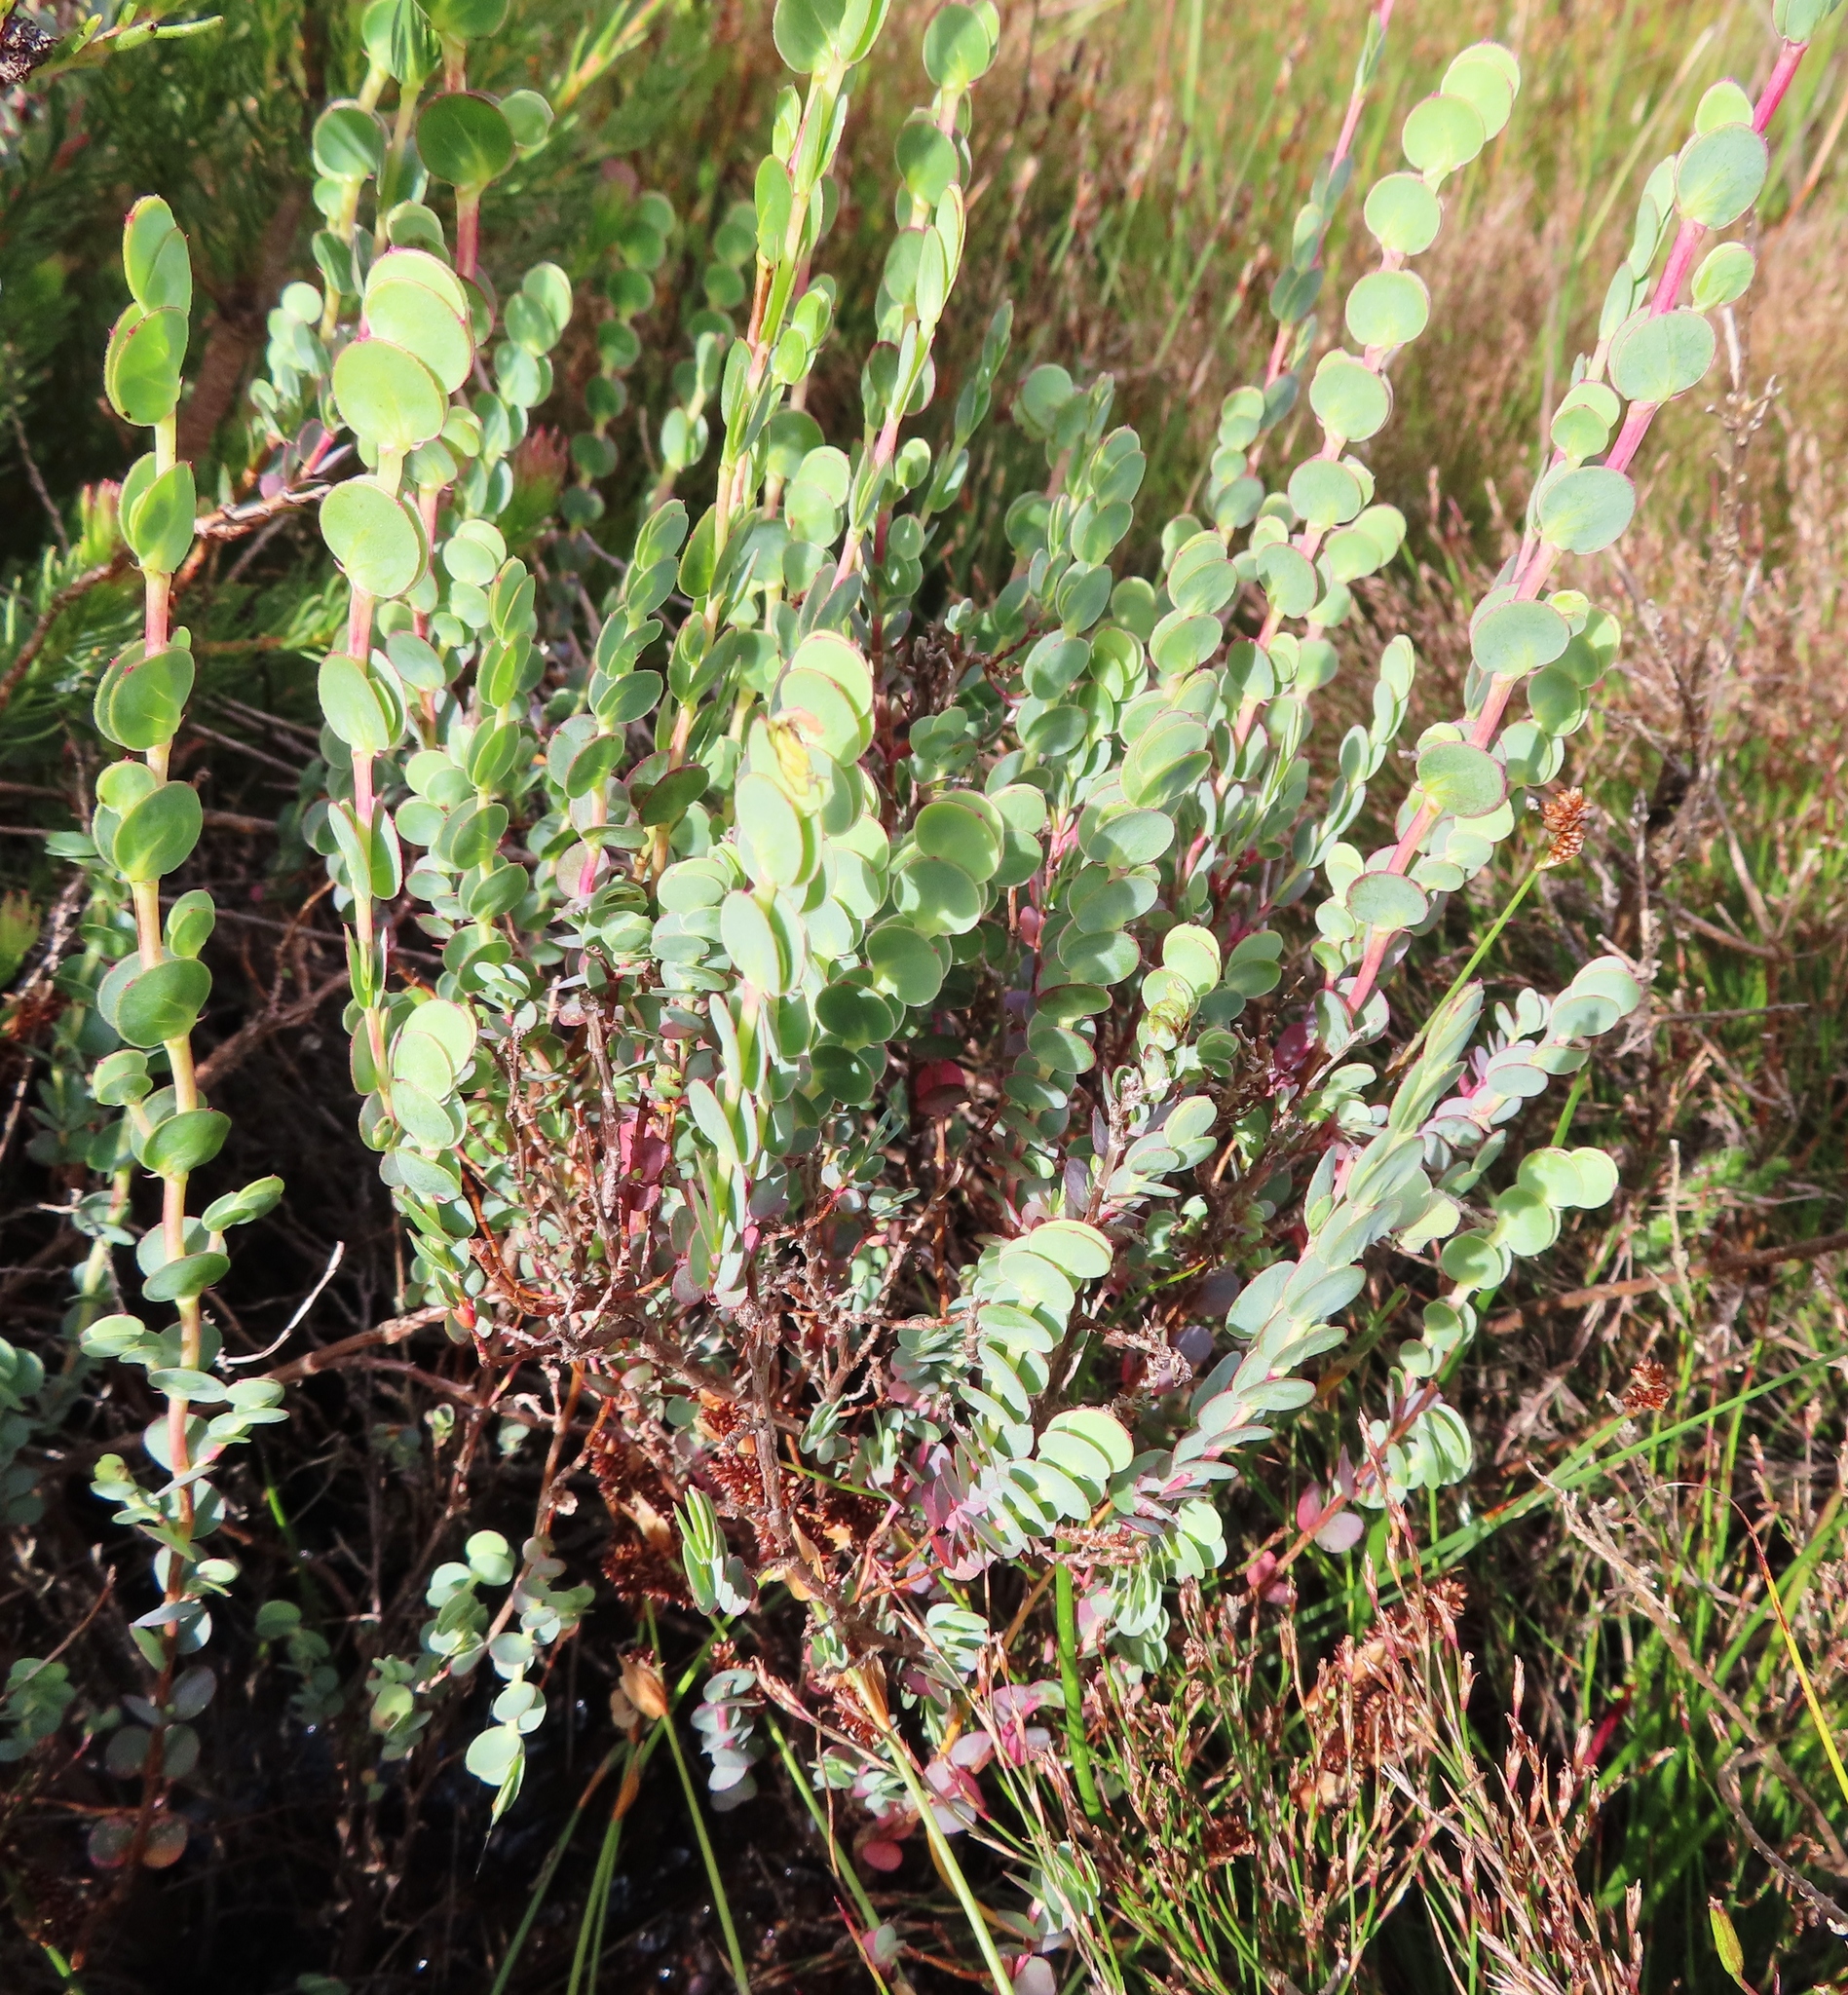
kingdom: Plantae
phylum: Tracheophyta
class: Magnoliopsida
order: Rosales
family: Rosaceae
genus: Cliffortia
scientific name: Cliffortia phyllanthoides
